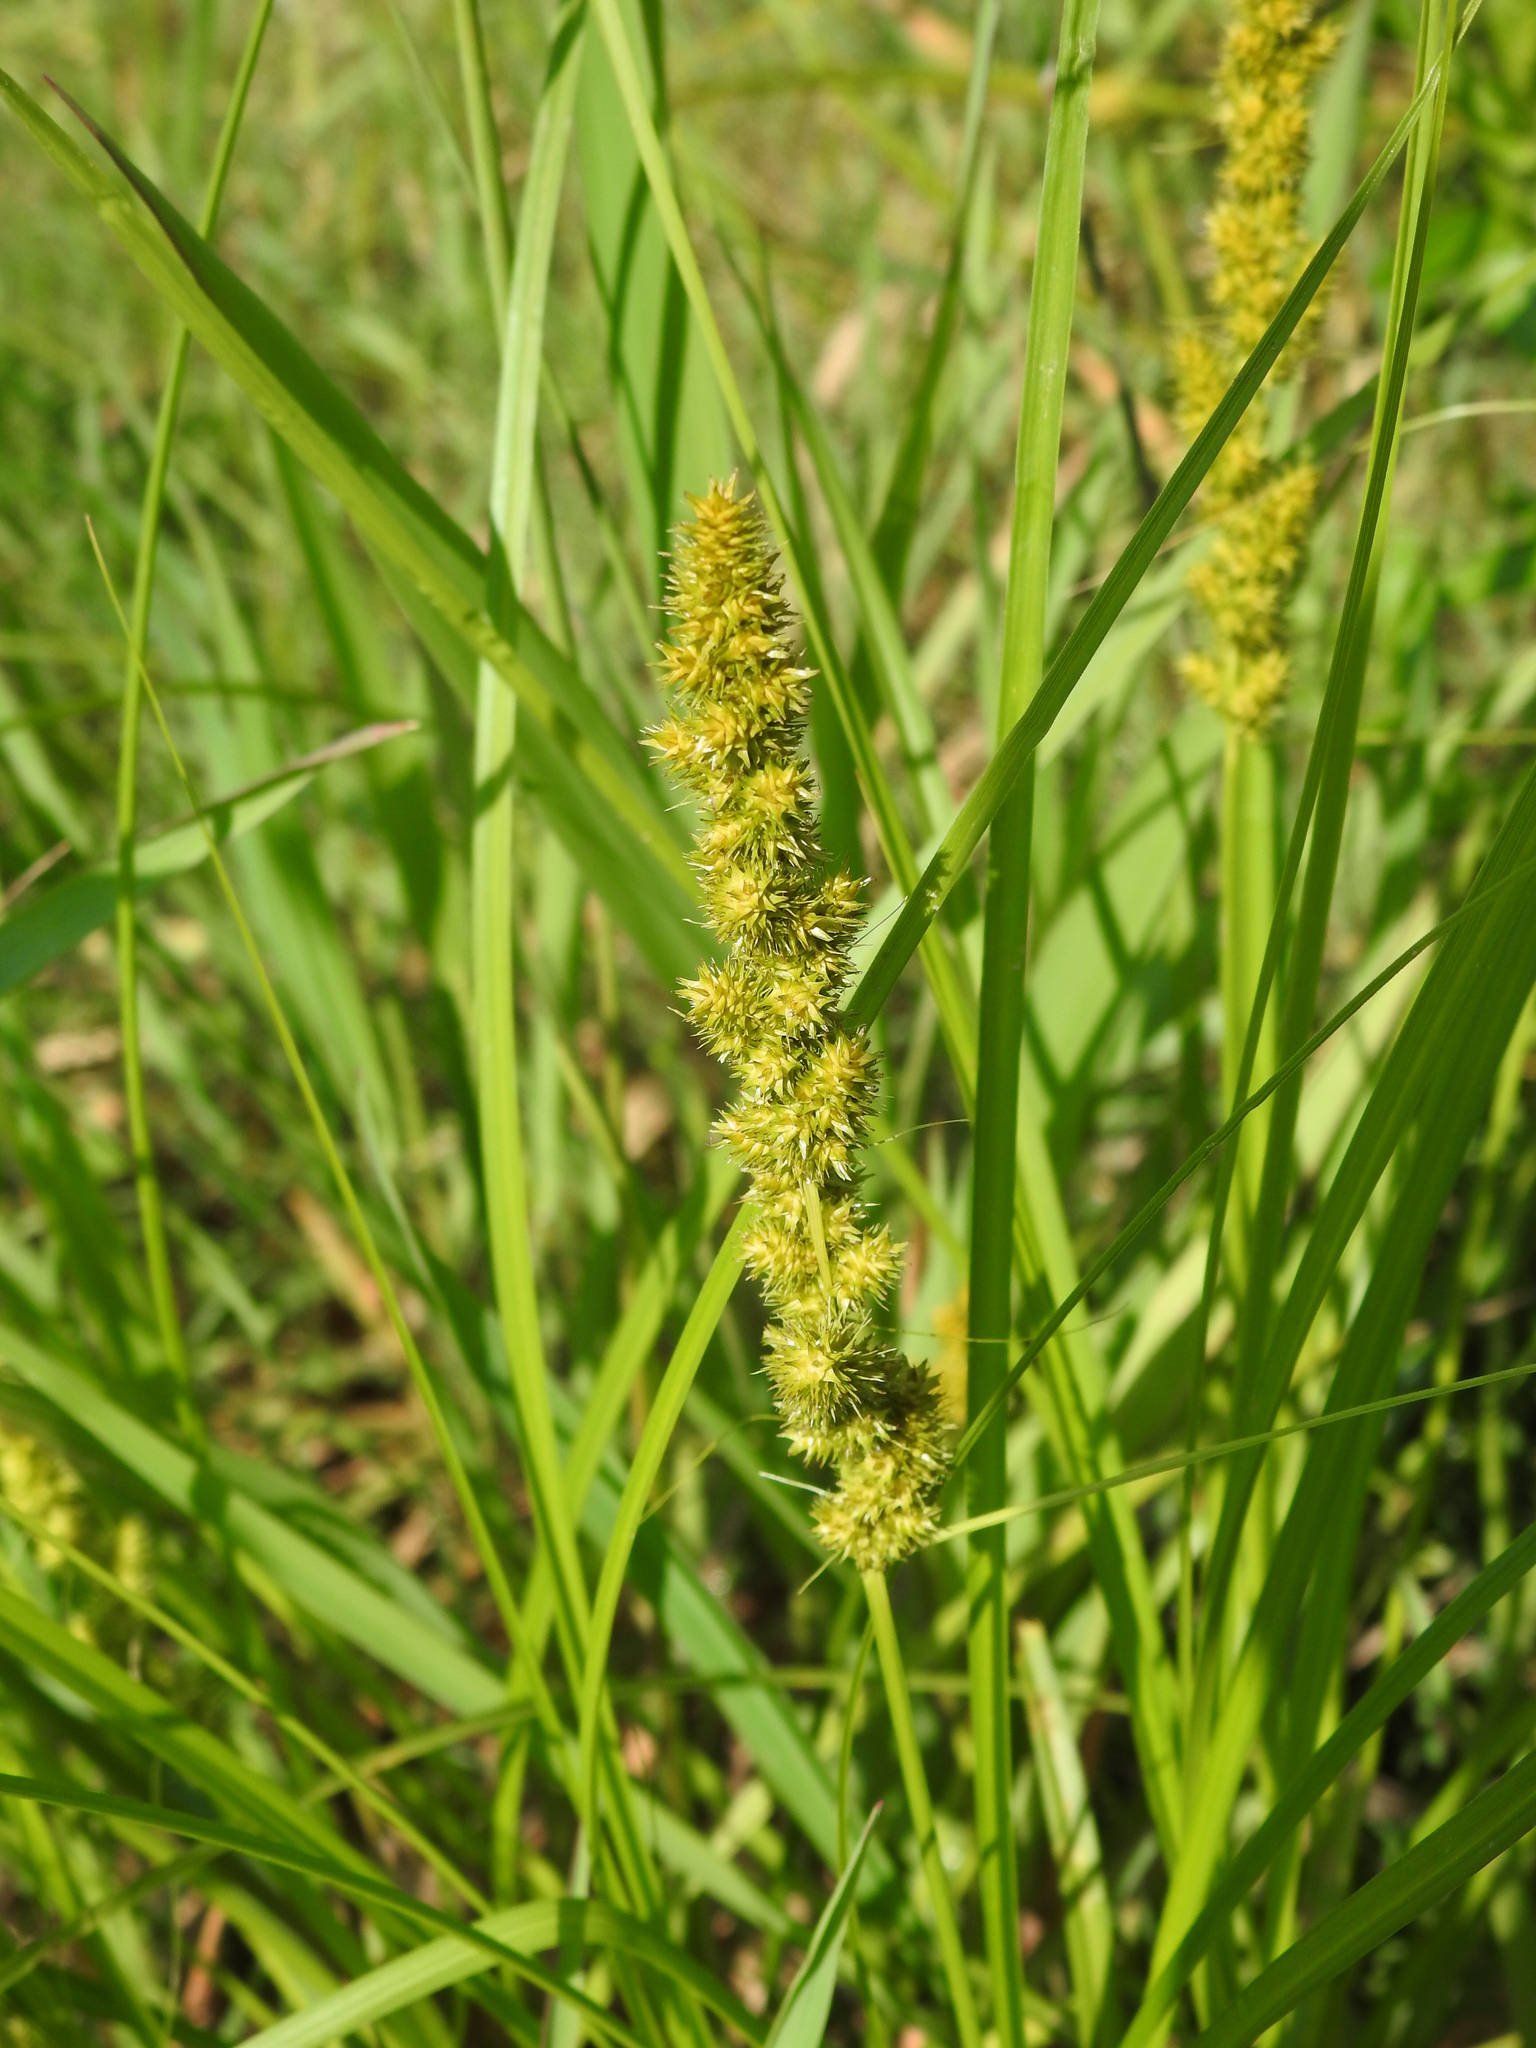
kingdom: Plantae
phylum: Tracheophyta
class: Liliopsida
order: Poales
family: Cyperaceae
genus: Carex
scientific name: Carex vulpinoidea
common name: American fox-sedge
